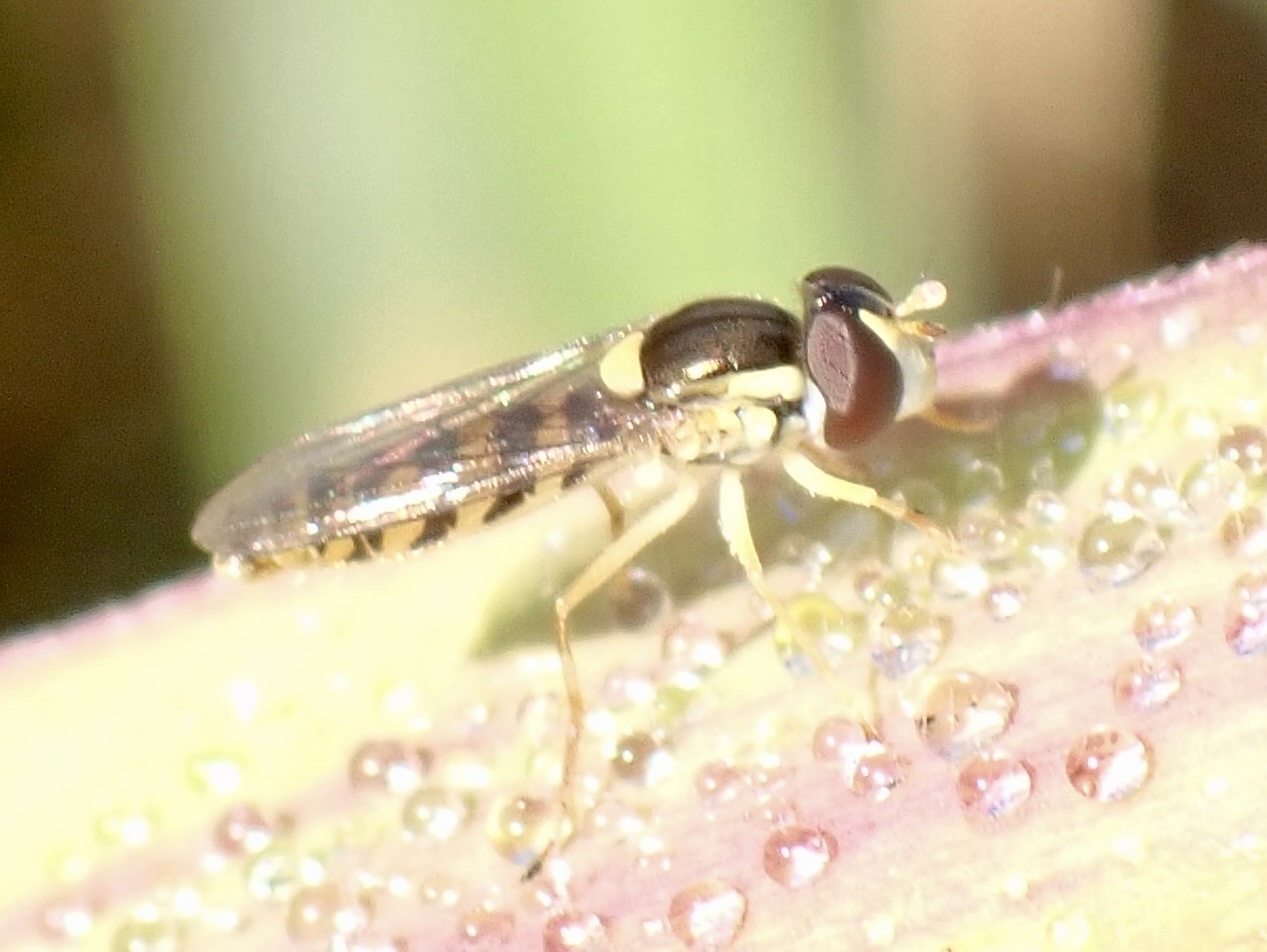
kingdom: Animalia
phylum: Arthropoda
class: Insecta
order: Diptera
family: Syrphidae
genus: Sphaerophoria
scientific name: Sphaerophoria macrogaster
